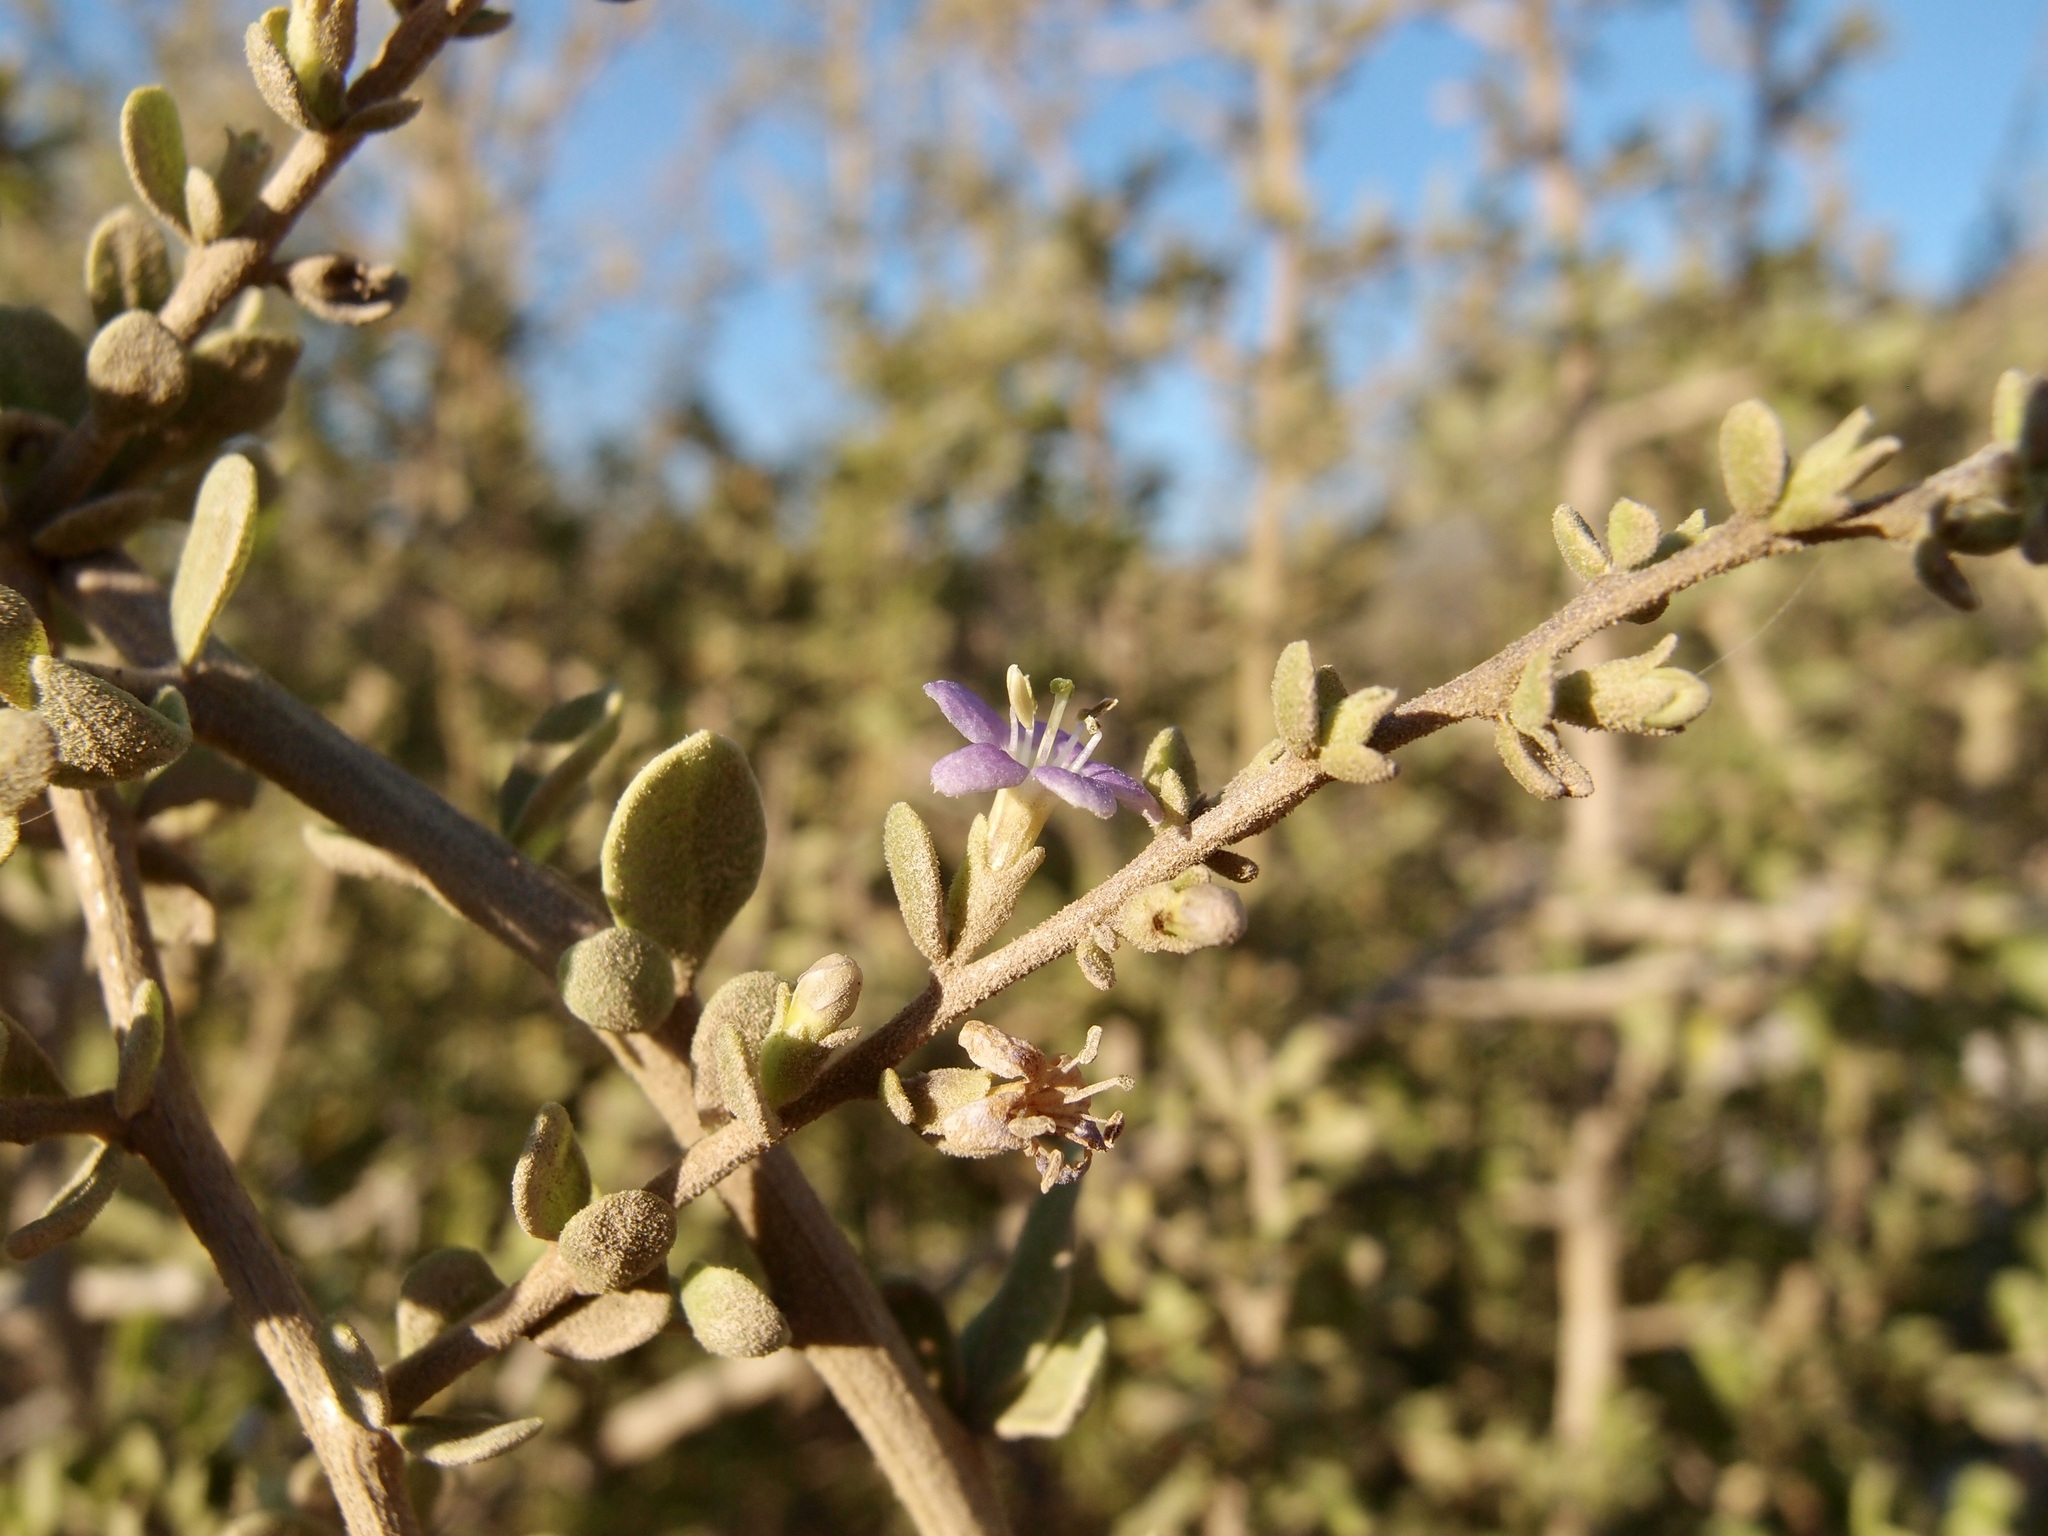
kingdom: Plantae
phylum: Tracheophyta
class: Magnoliopsida
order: Solanales
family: Solanaceae
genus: Lycium
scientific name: Lycium brevipes
